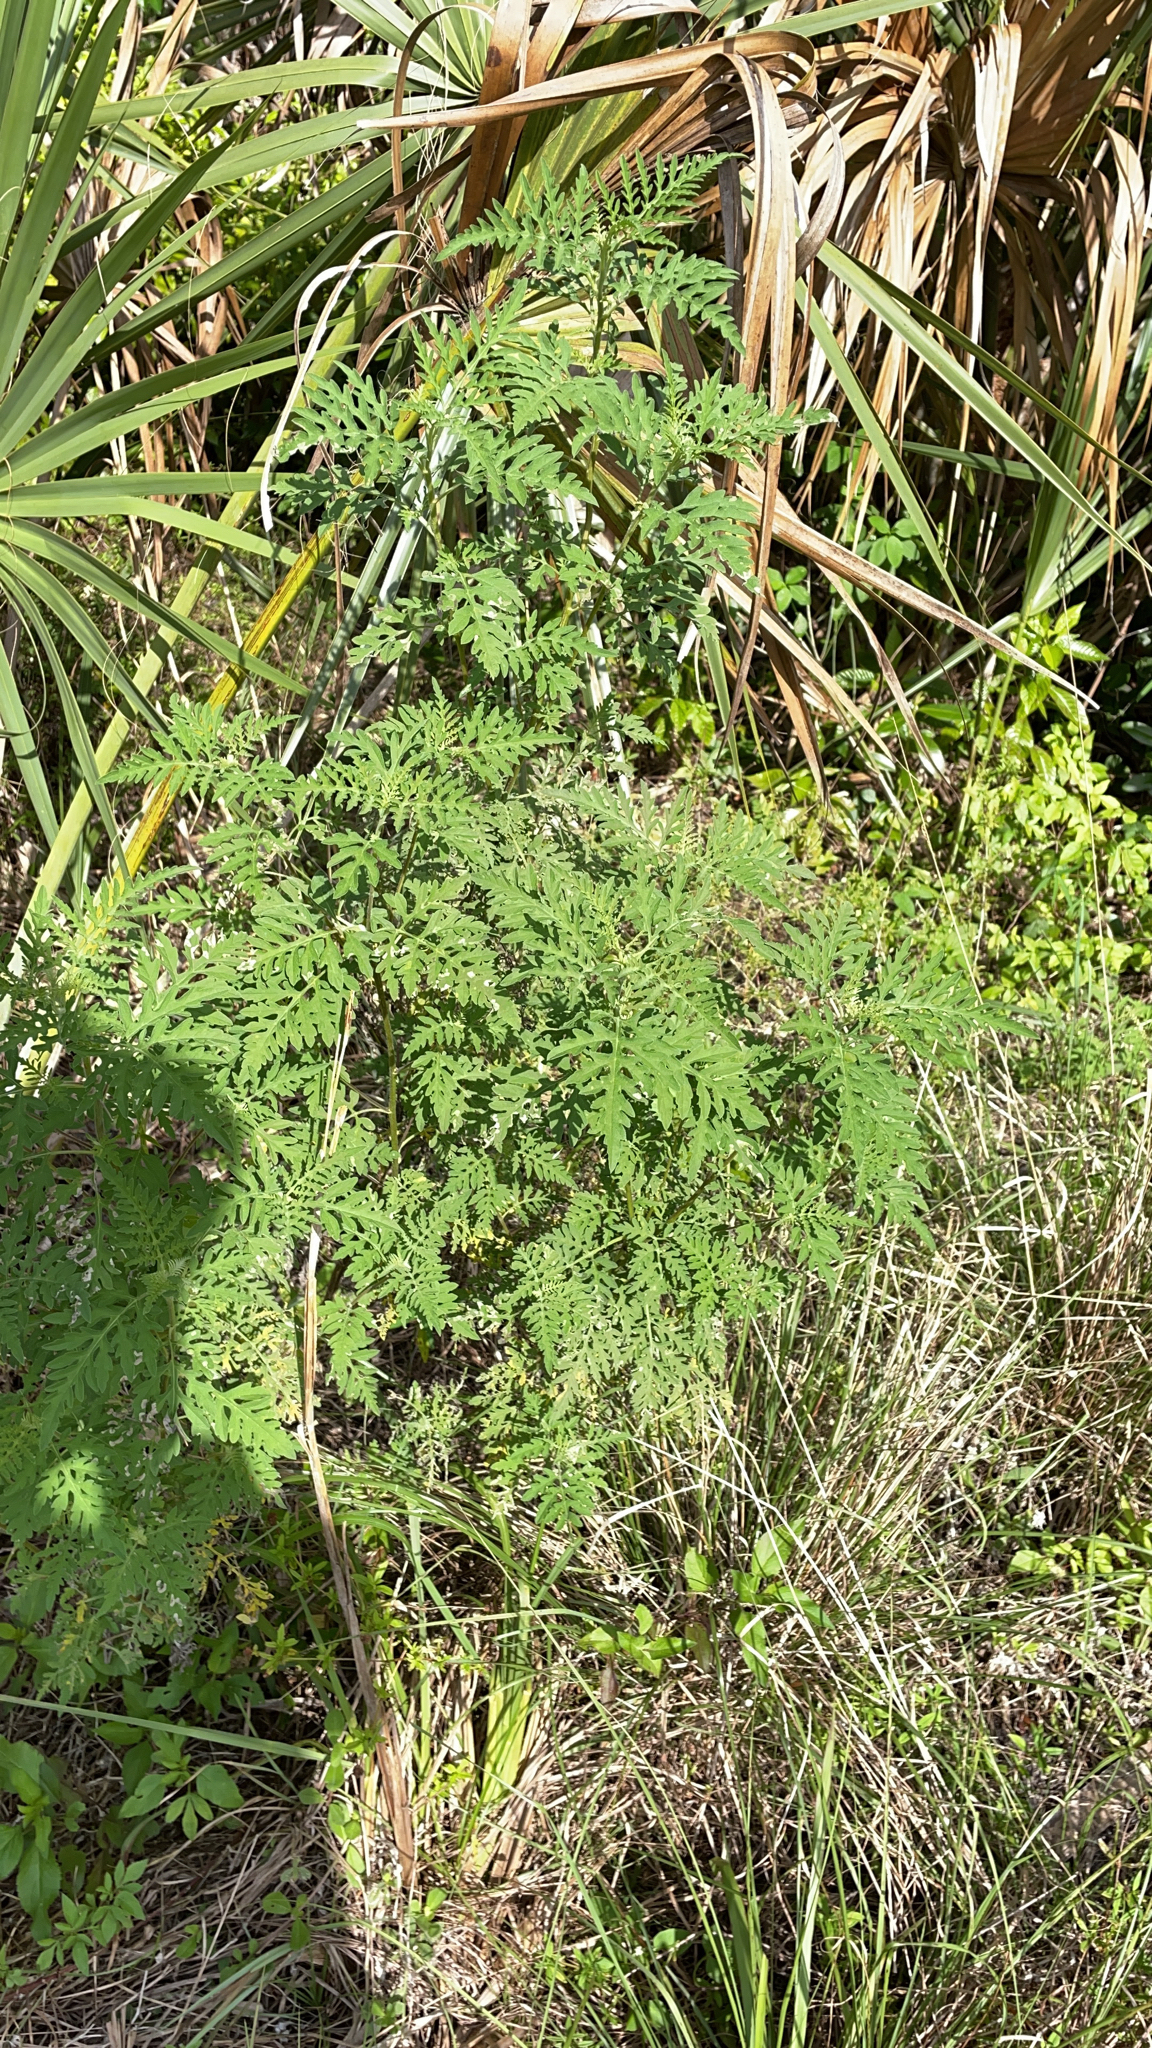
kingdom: Plantae
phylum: Tracheophyta
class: Magnoliopsida
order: Asterales
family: Asteraceae
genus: Ambrosia
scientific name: Ambrosia artemisiifolia
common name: Annual ragweed
